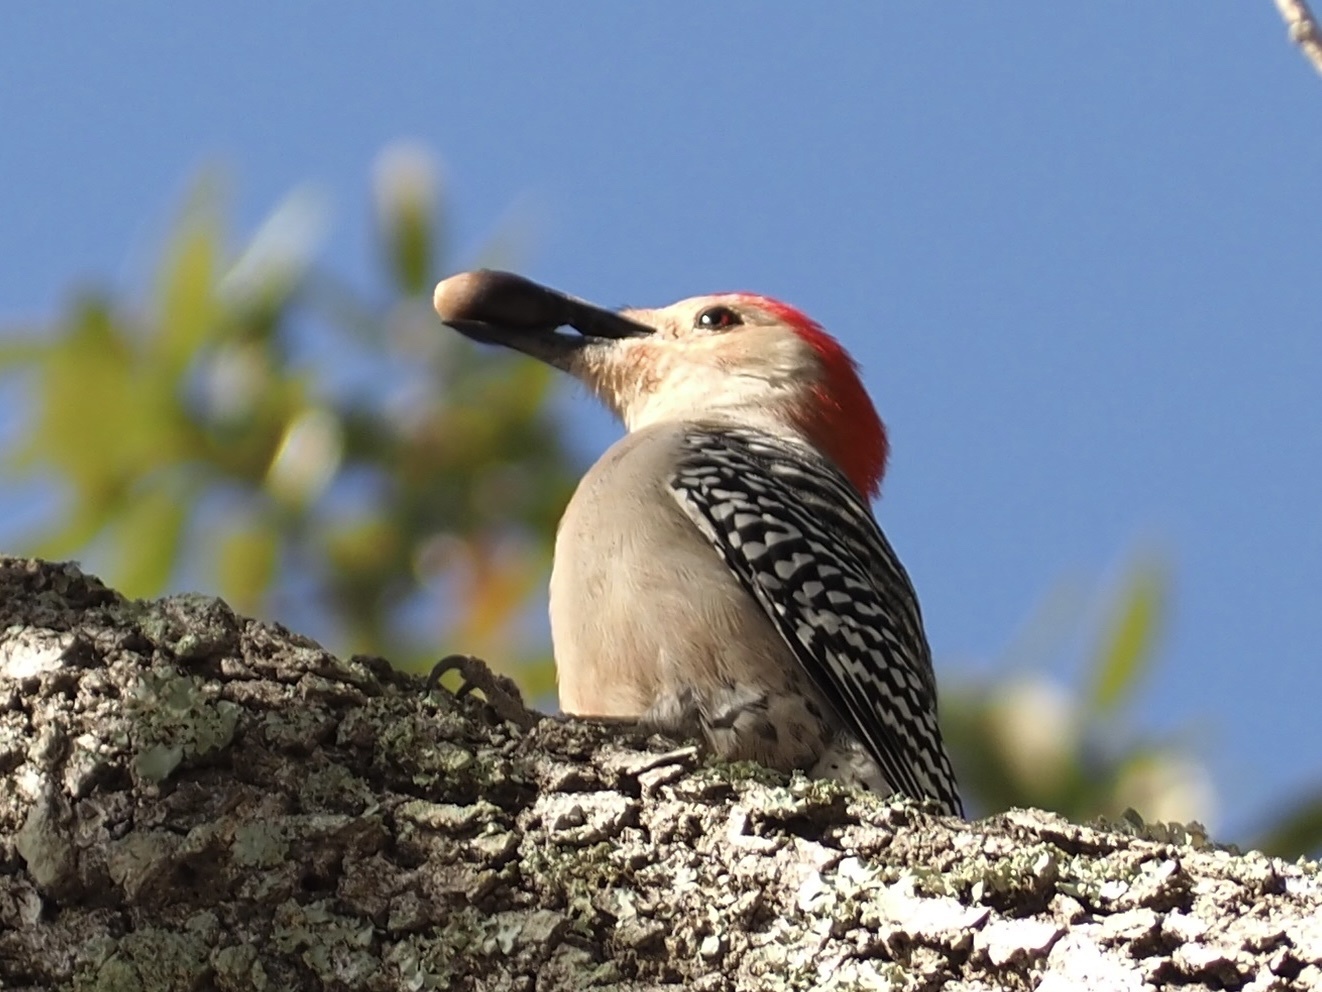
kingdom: Animalia
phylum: Chordata
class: Aves
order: Piciformes
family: Picidae
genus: Melanerpes
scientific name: Melanerpes carolinus
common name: Red-bellied woodpecker
